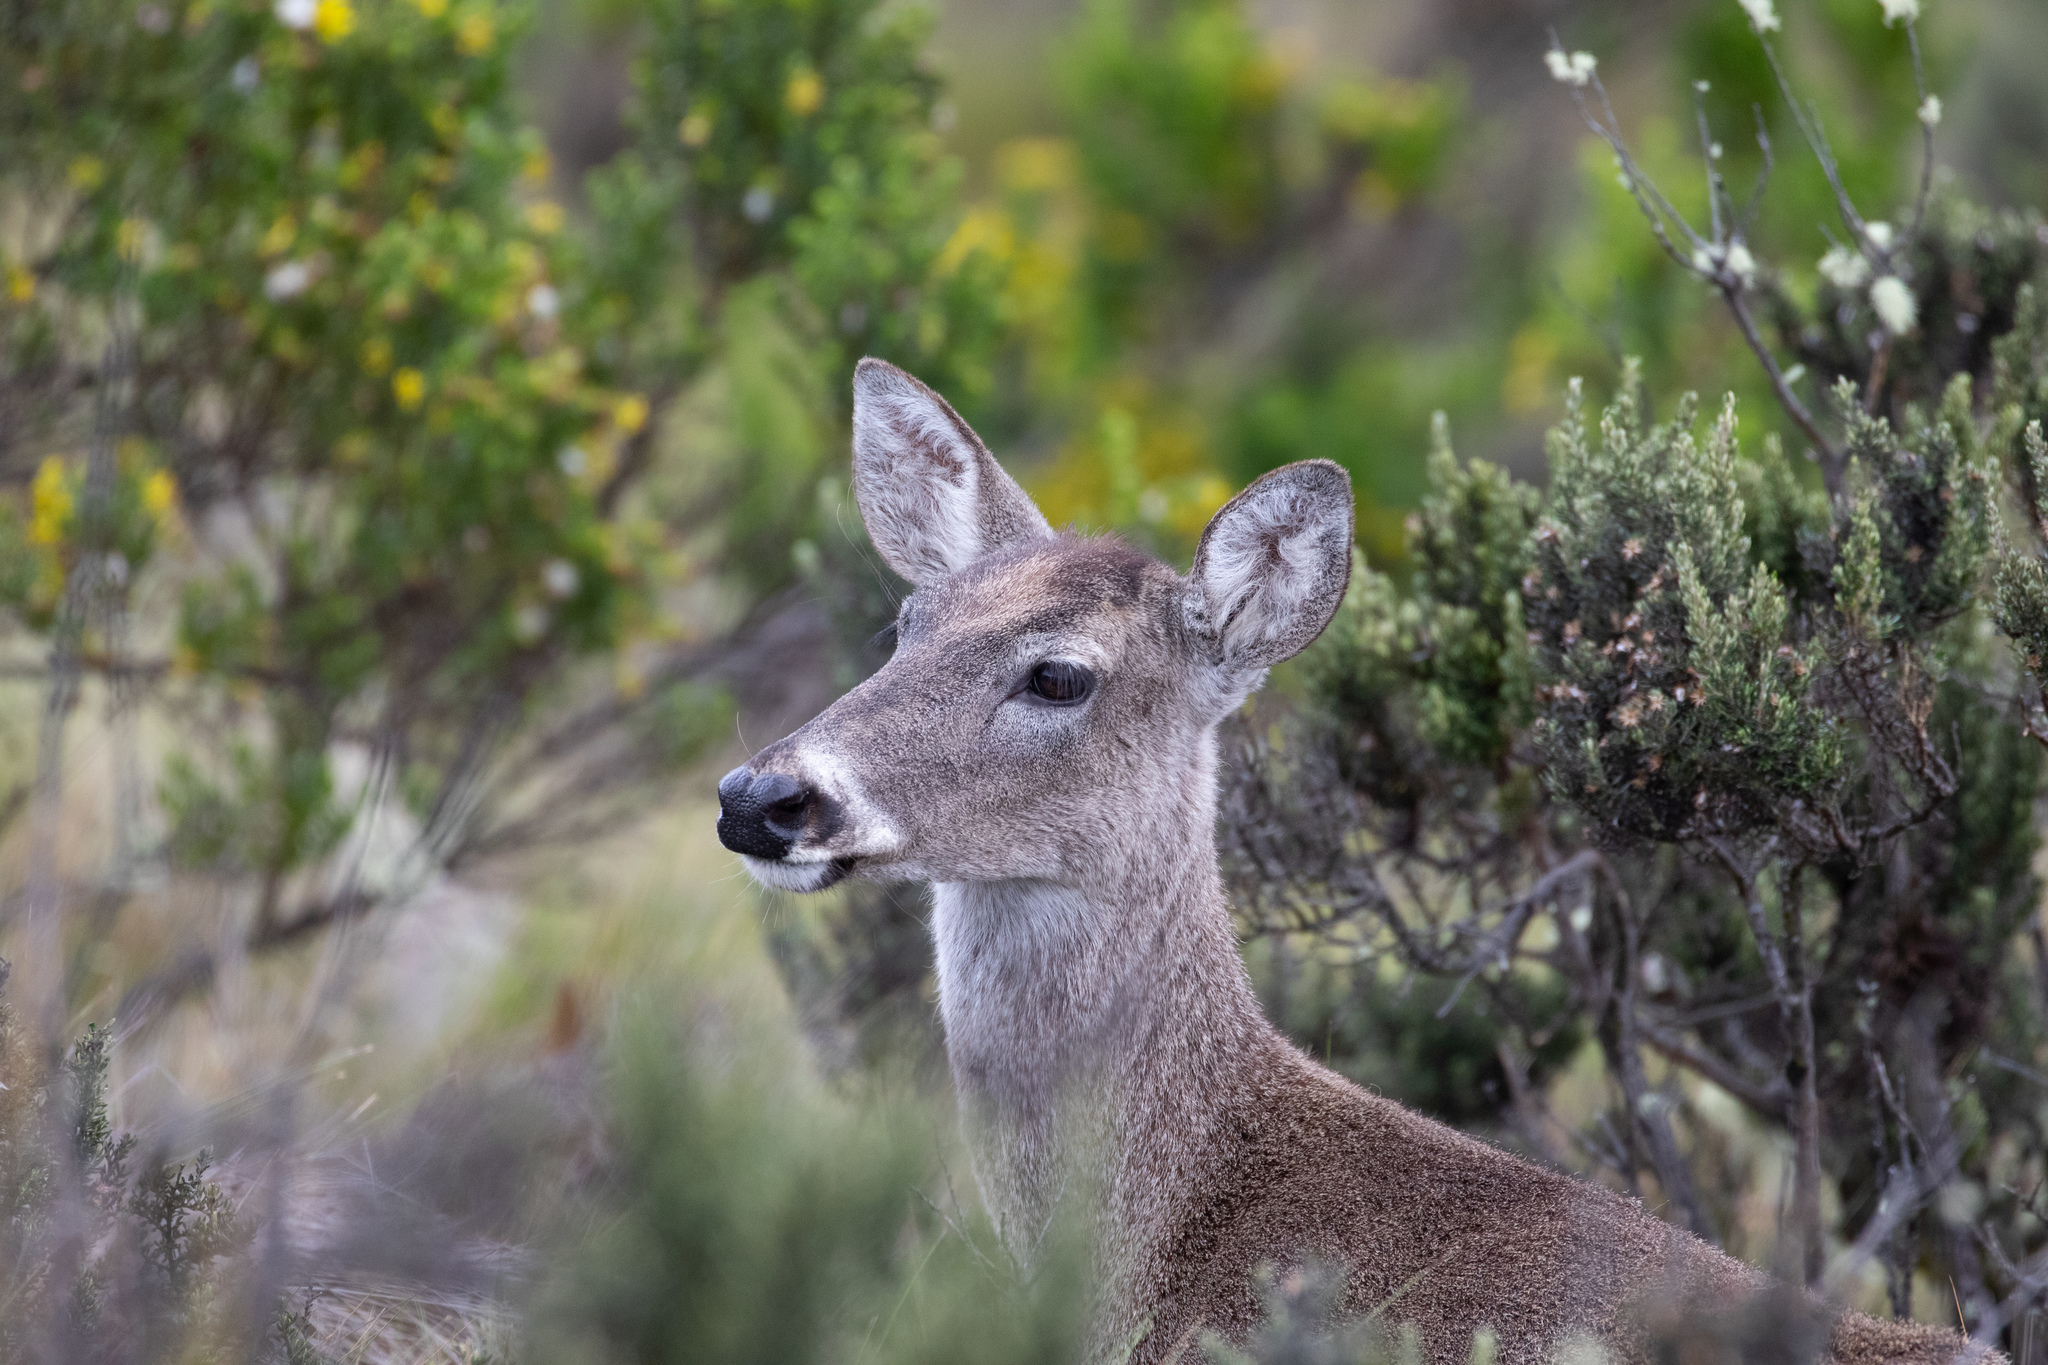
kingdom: Animalia
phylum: Chordata
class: Mammalia
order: Artiodactyla
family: Cervidae
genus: Odocoileus
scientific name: Odocoileus virginianus
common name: White-tailed deer
